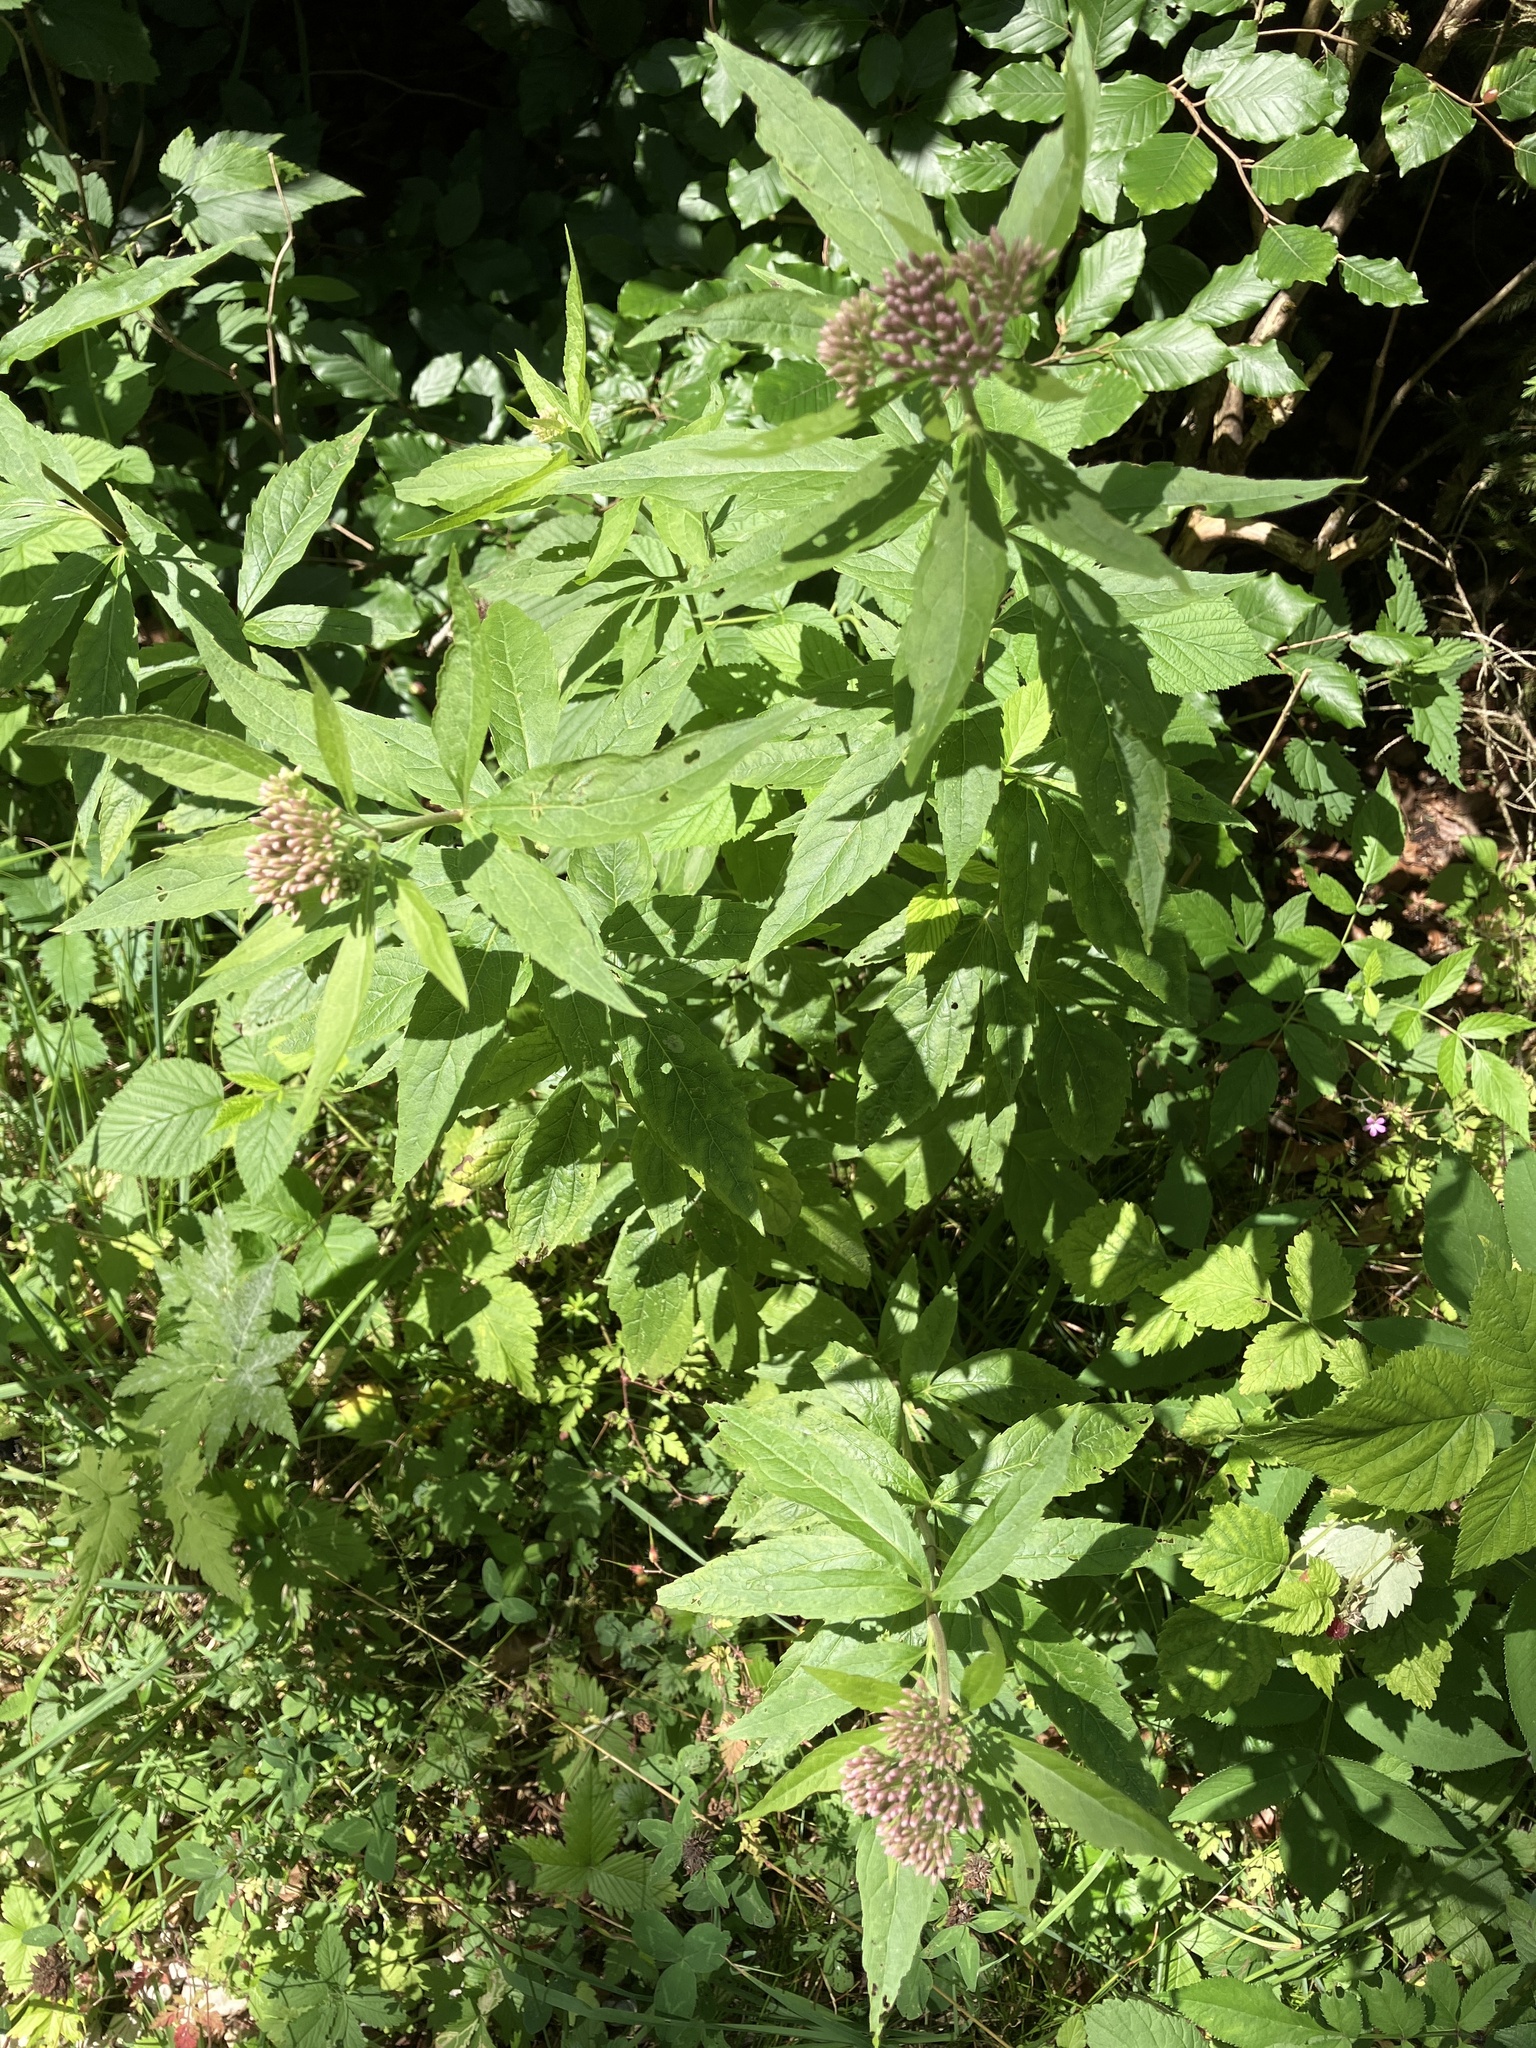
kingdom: Plantae
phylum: Tracheophyta
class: Magnoliopsida
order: Asterales
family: Asteraceae
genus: Eupatorium
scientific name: Eupatorium cannabinum
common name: Hemp-agrimony
